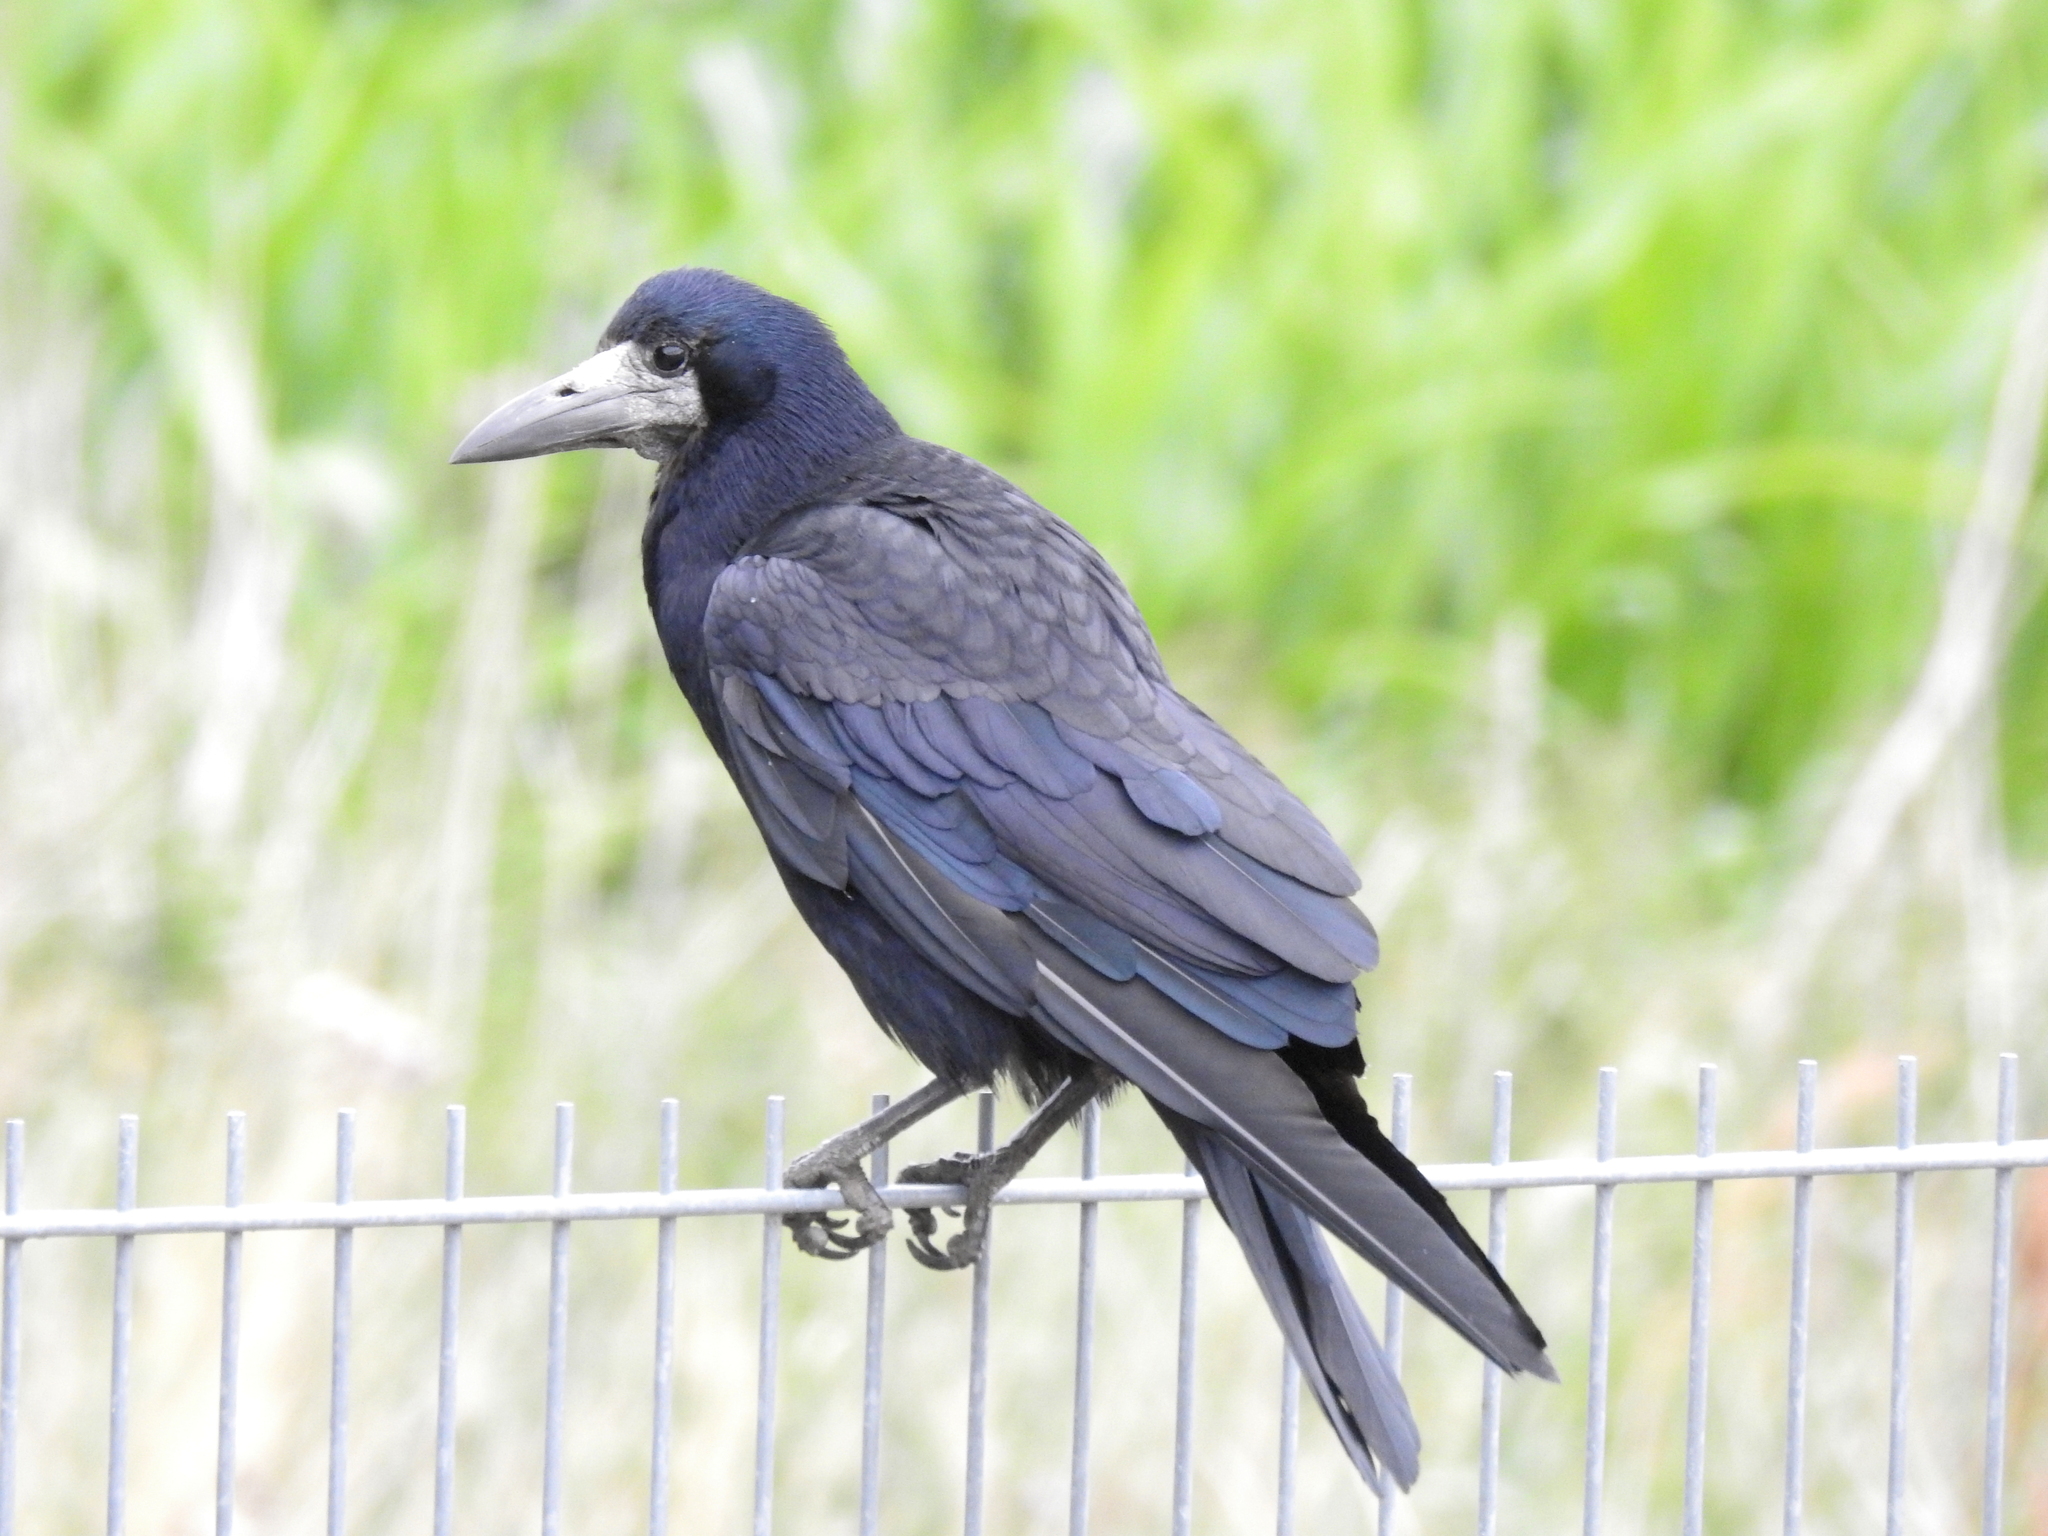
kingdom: Animalia
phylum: Chordata
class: Aves
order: Passeriformes
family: Corvidae
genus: Corvus
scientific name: Corvus frugilegus
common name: Rook
